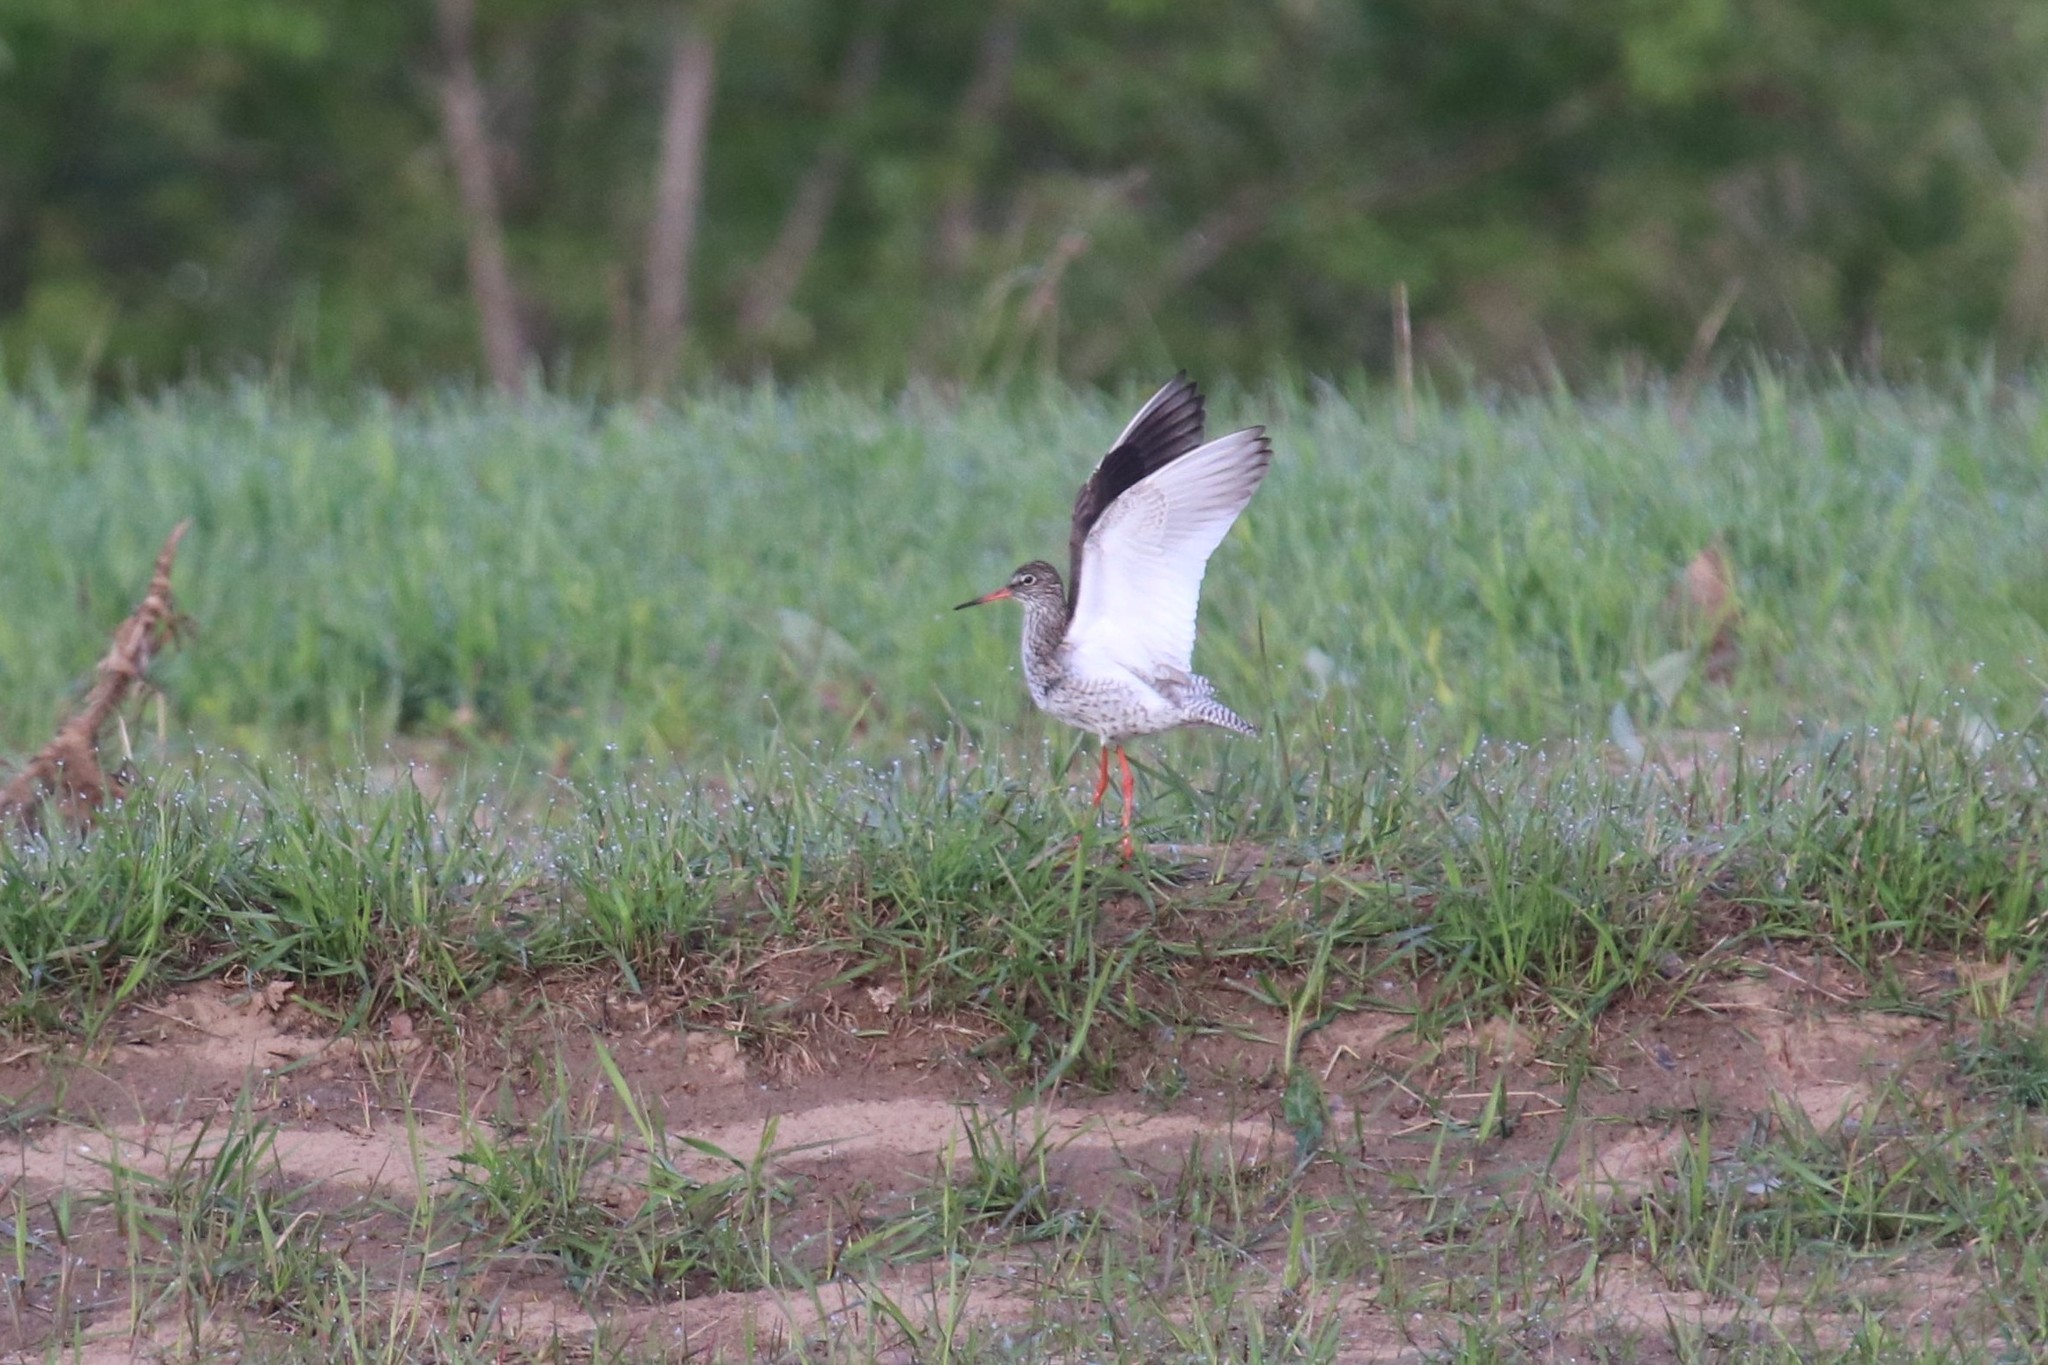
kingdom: Animalia
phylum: Chordata
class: Aves
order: Charadriiformes
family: Scolopacidae
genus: Tringa
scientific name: Tringa totanus
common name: Common redshank
